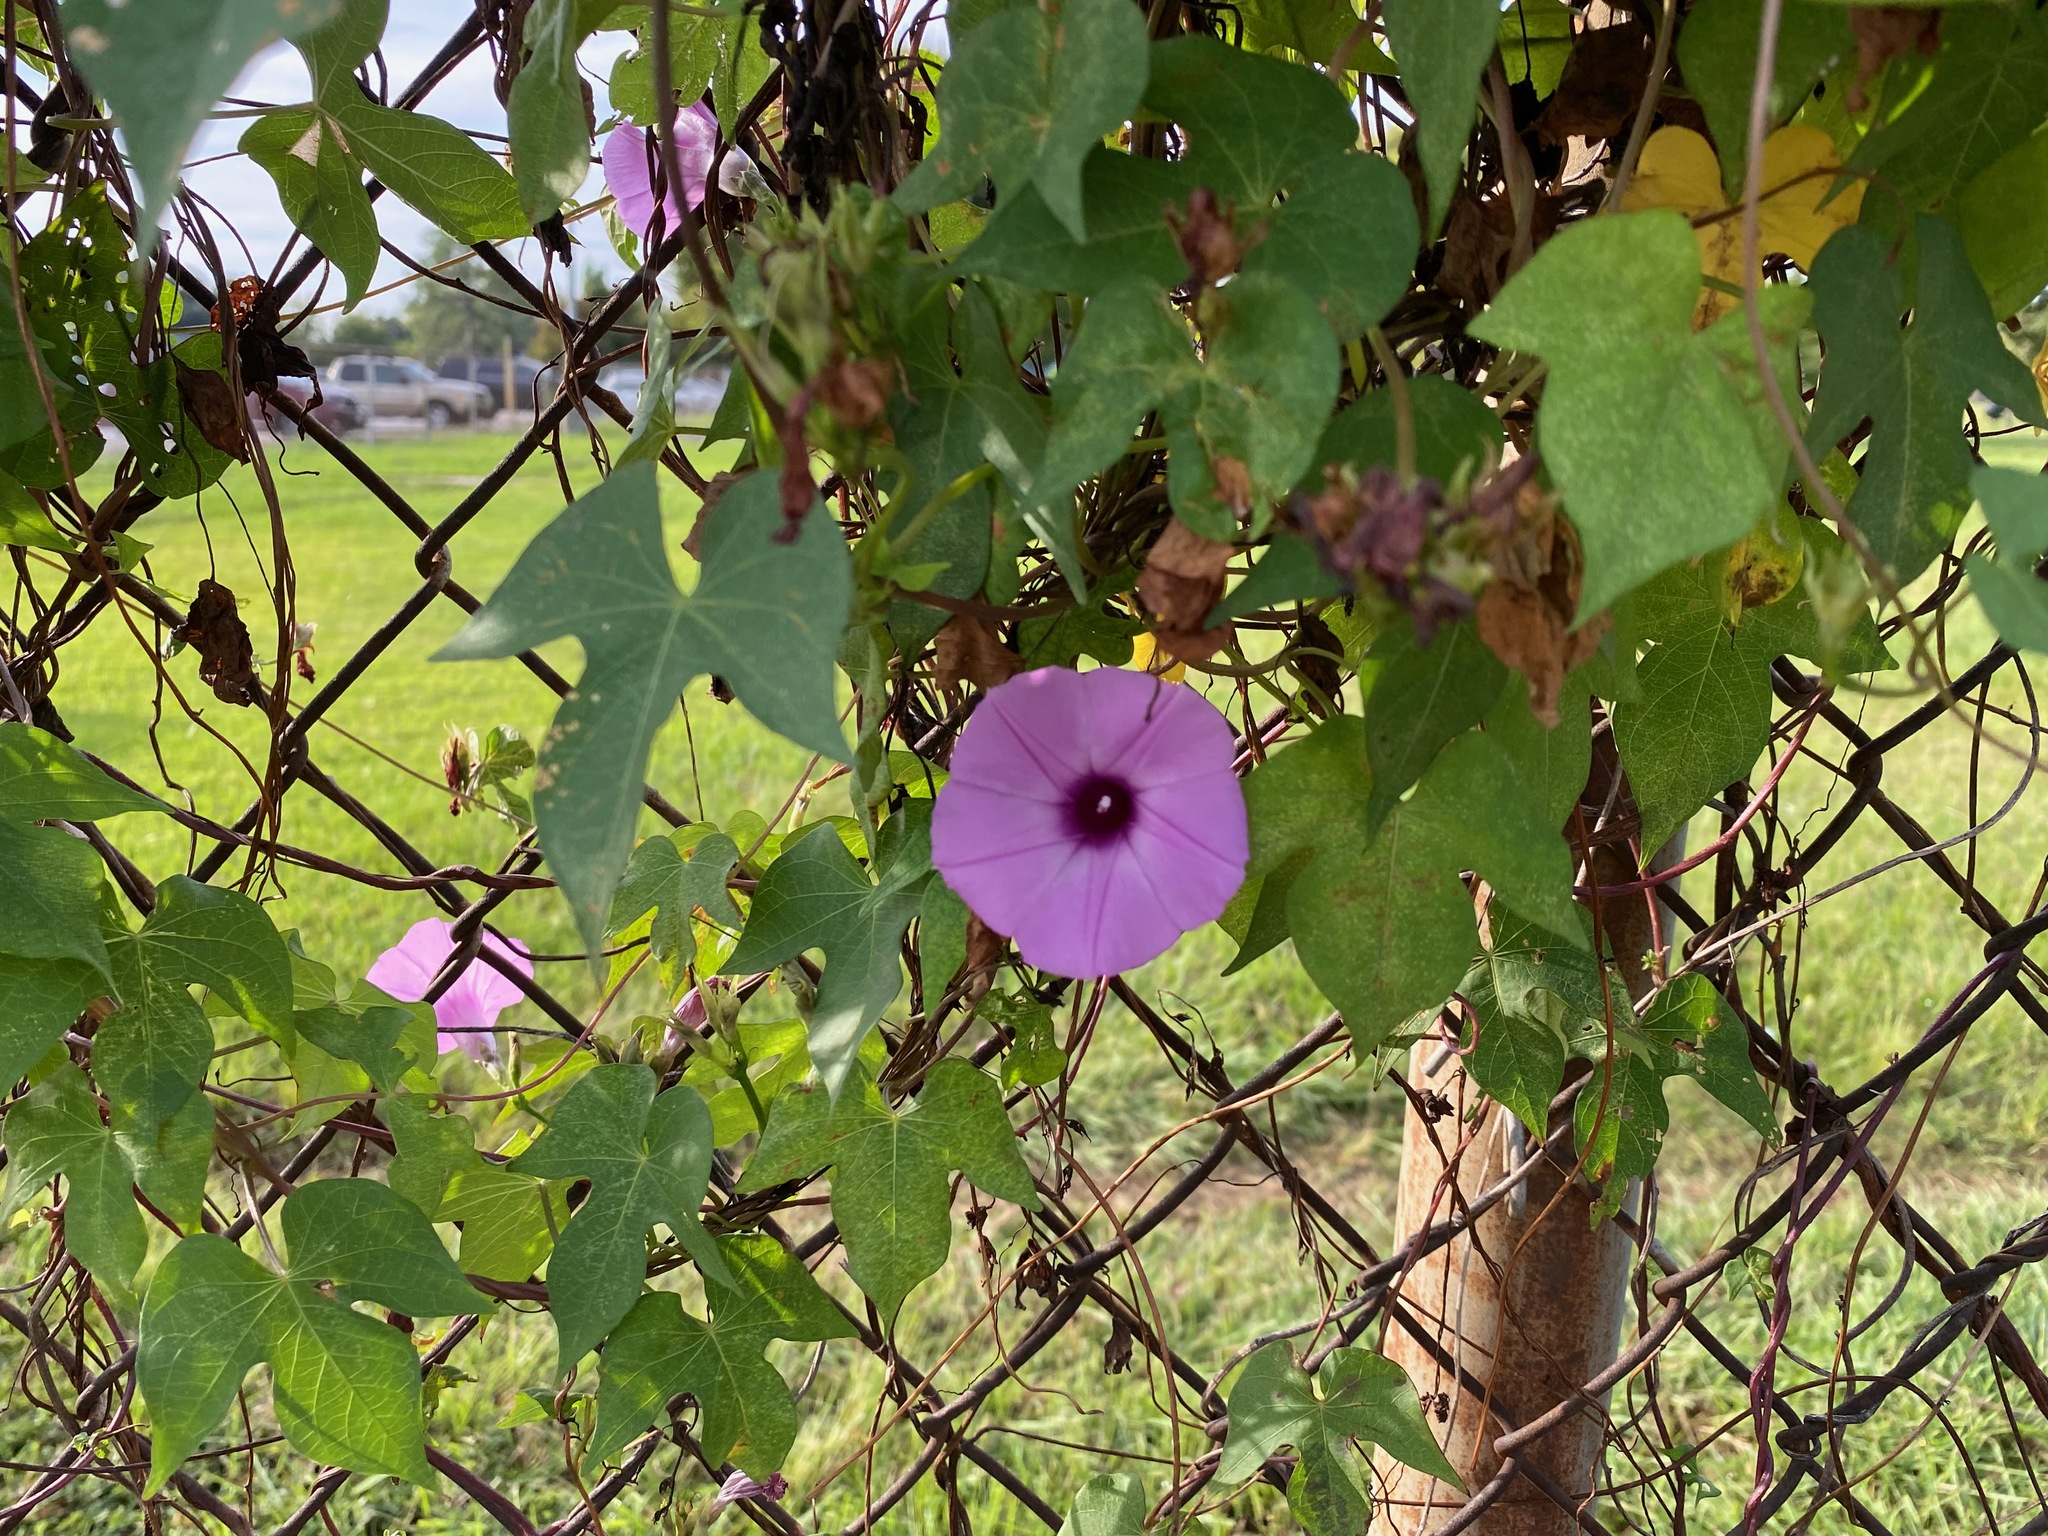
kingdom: Plantae
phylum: Tracheophyta
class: Magnoliopsida
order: Solanales
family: Convolvulaceae
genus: Ipomoea
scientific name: Ipomoea cordatotriloba
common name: Cotton morning glory
